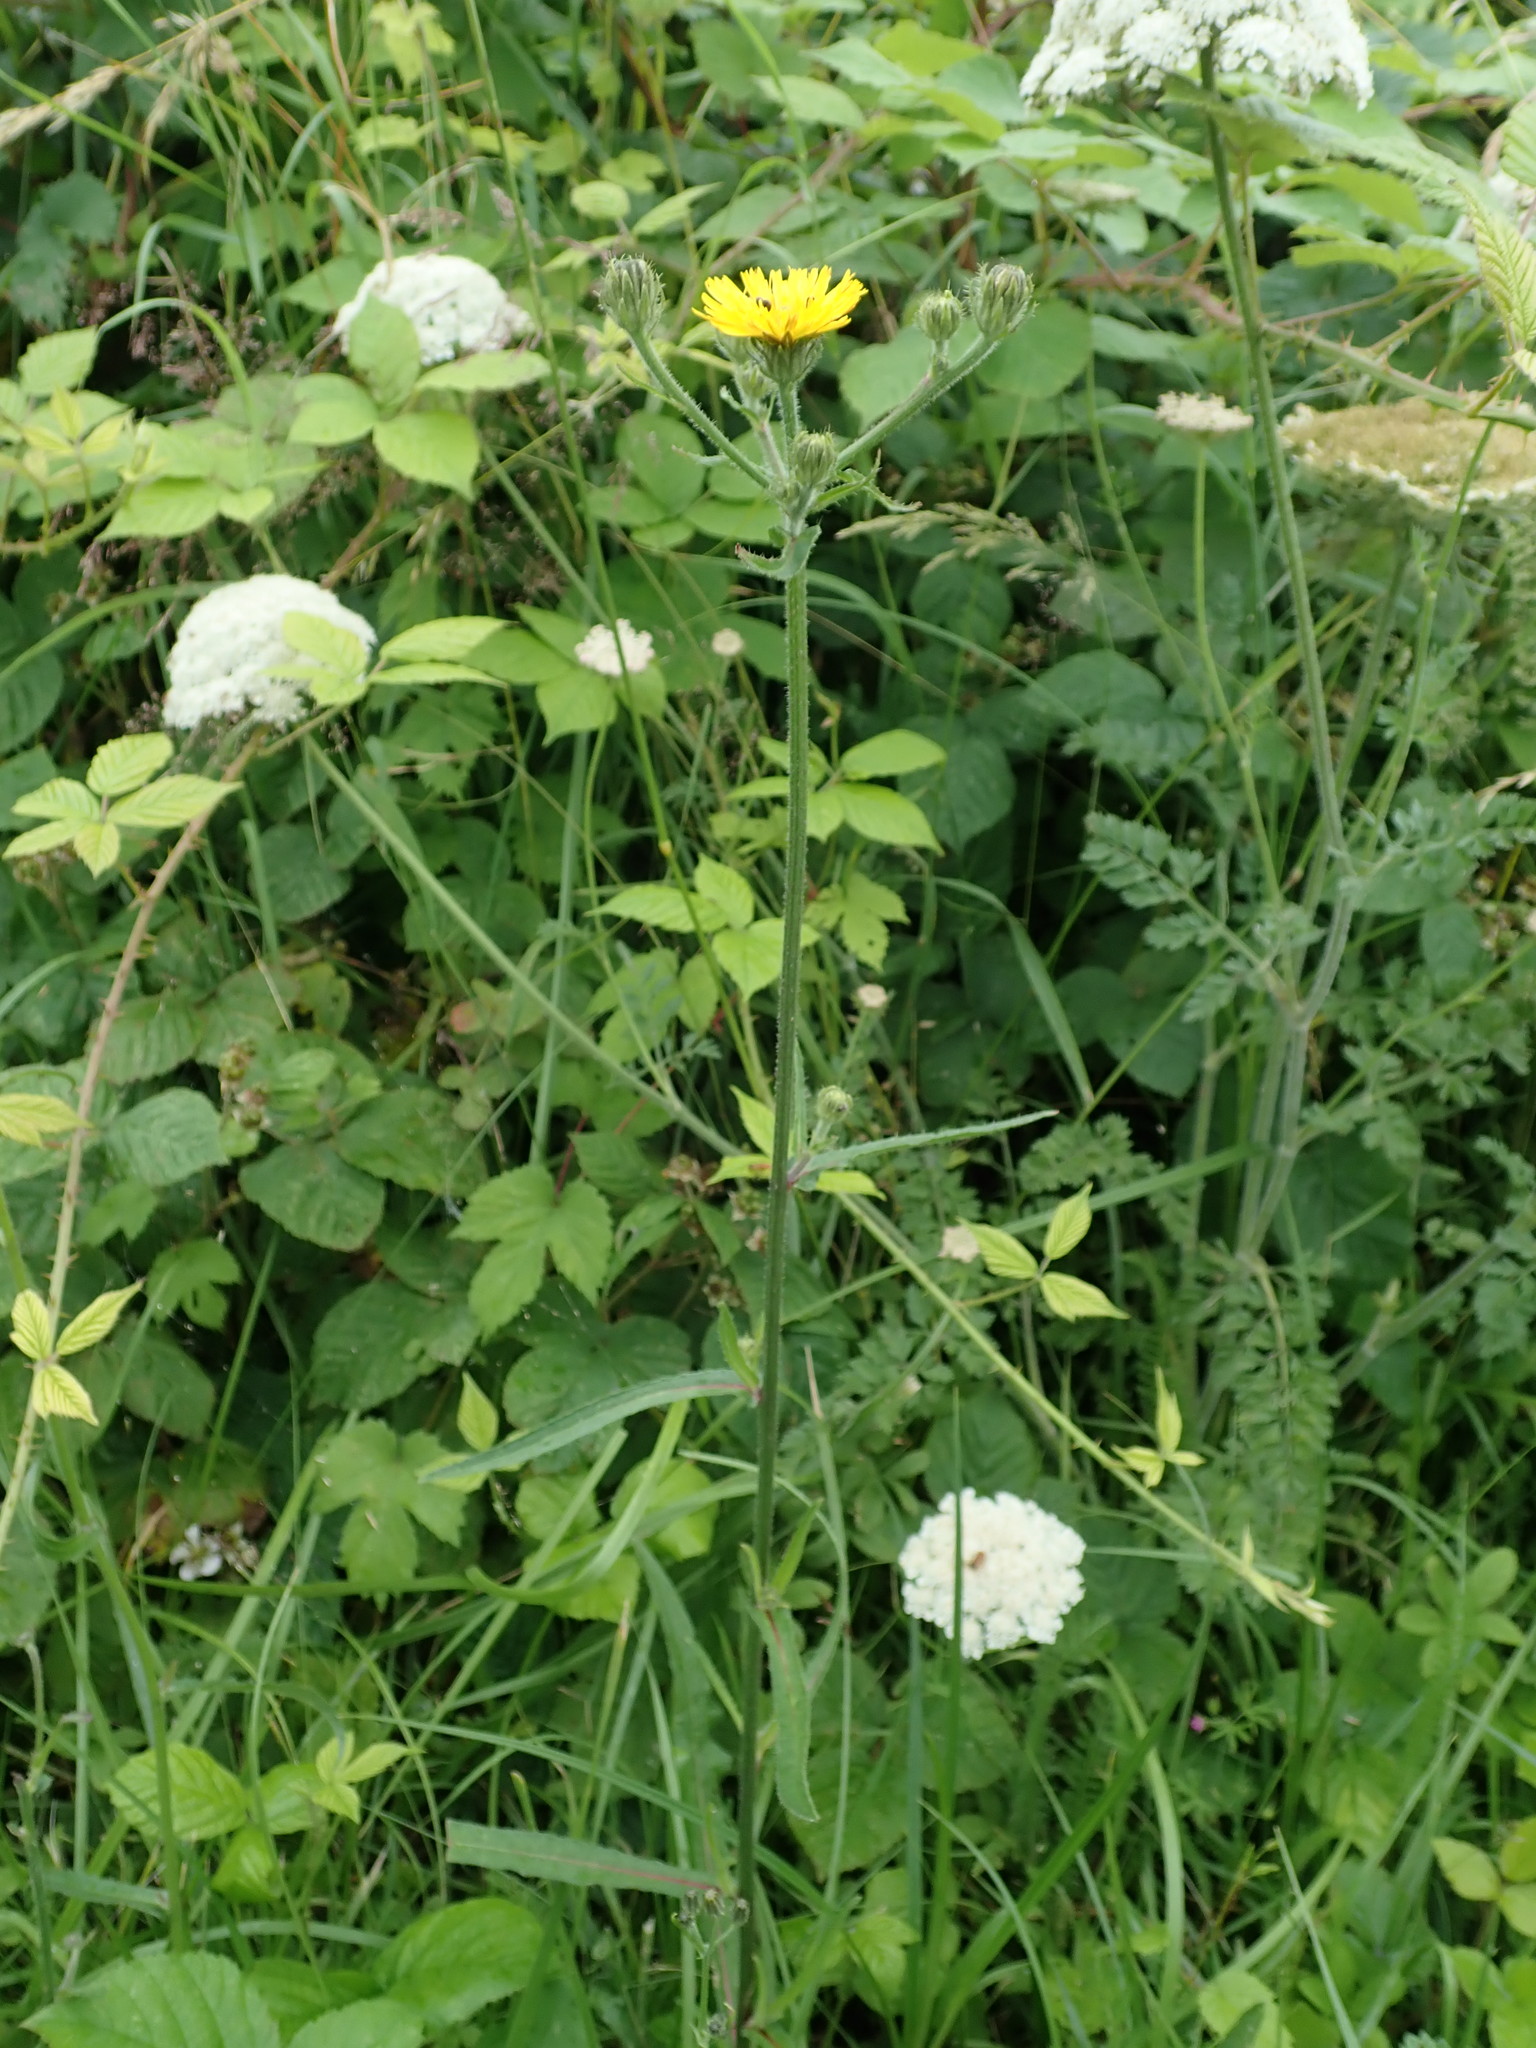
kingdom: Plantae
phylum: Tracheophyta
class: Magnoliopsida
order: Asterales
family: Asteraceae
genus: Picris
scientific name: Picris hieracioides
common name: Hawkweed oxtongue
